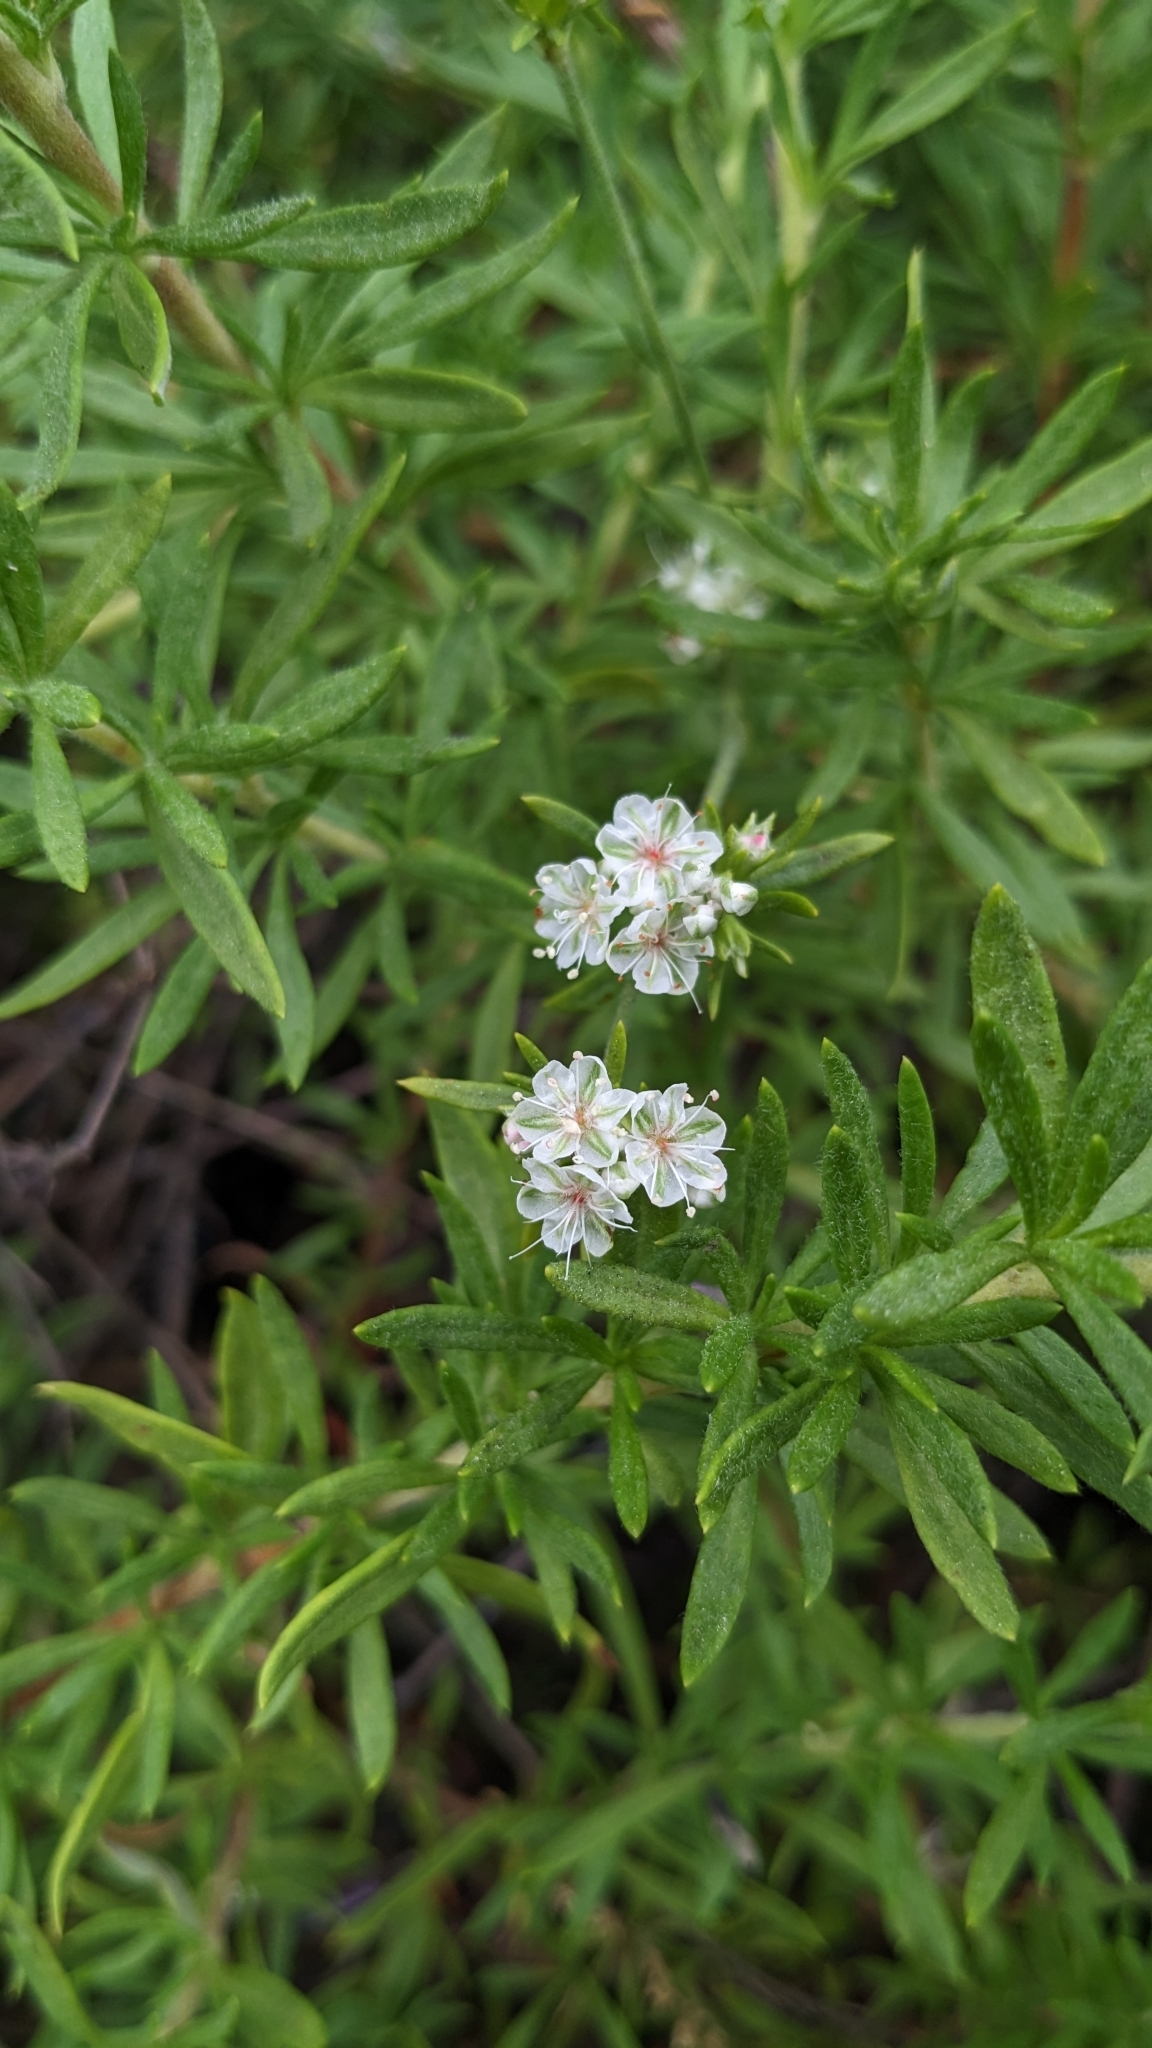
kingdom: Plantae
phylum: Tracheophyta
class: Magnoliopsida
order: Caryophyllales
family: Polygonaceae
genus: Eriogonum
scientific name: Eriogonum fasciculatum
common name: California wild buckwheat
